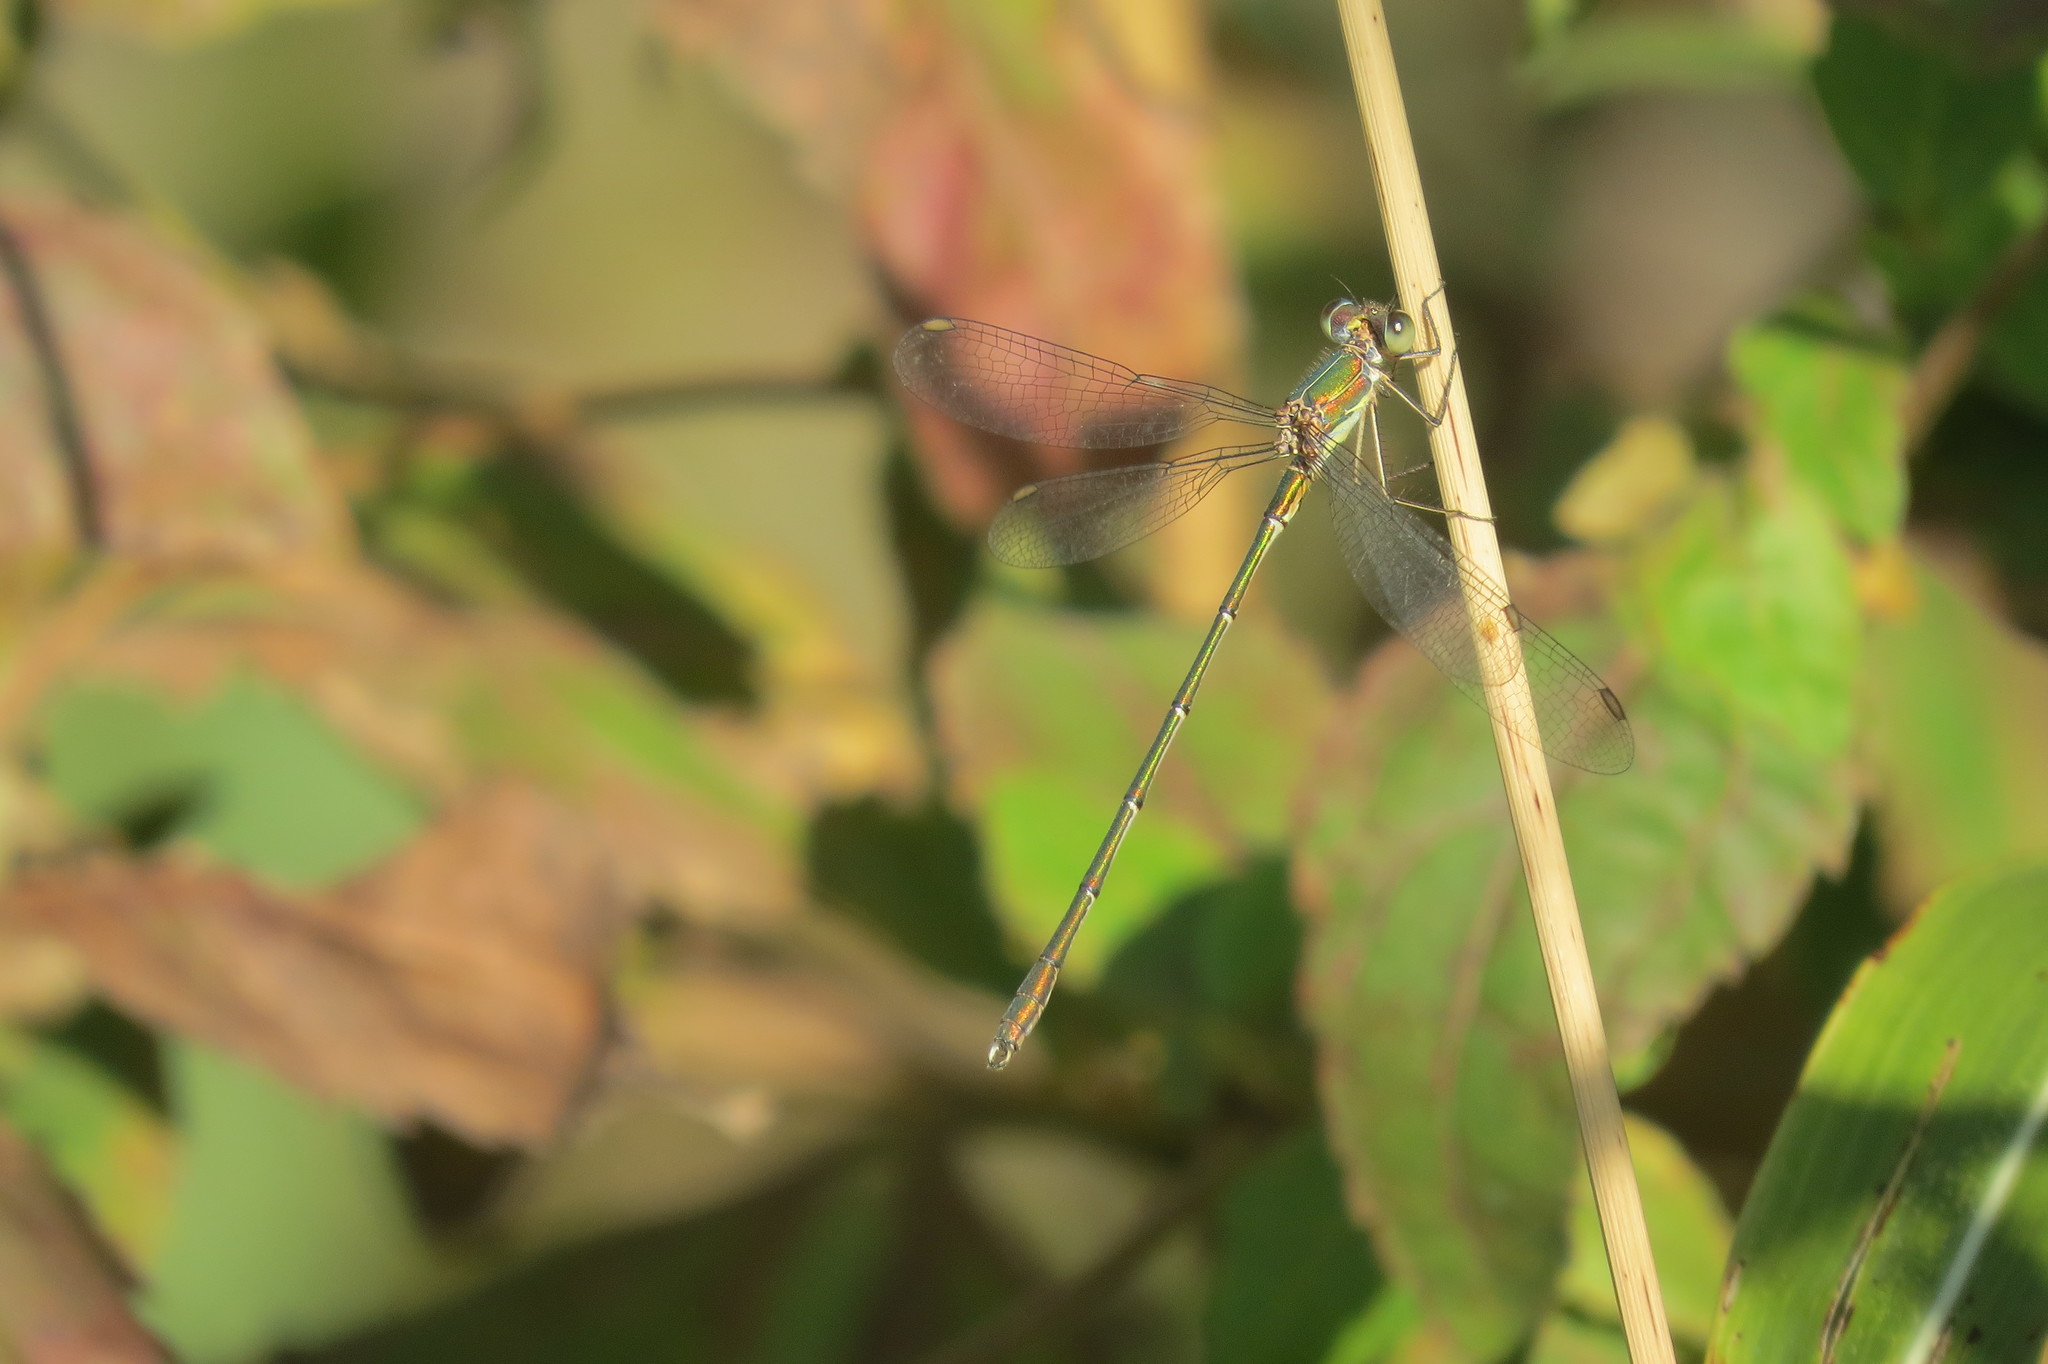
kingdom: Animalia
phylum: Arthropoda
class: Insecta
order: Odonata
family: Lestidae
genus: Chalcolestes
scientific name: Chalcolestes viridis
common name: Green emerald damselfly
